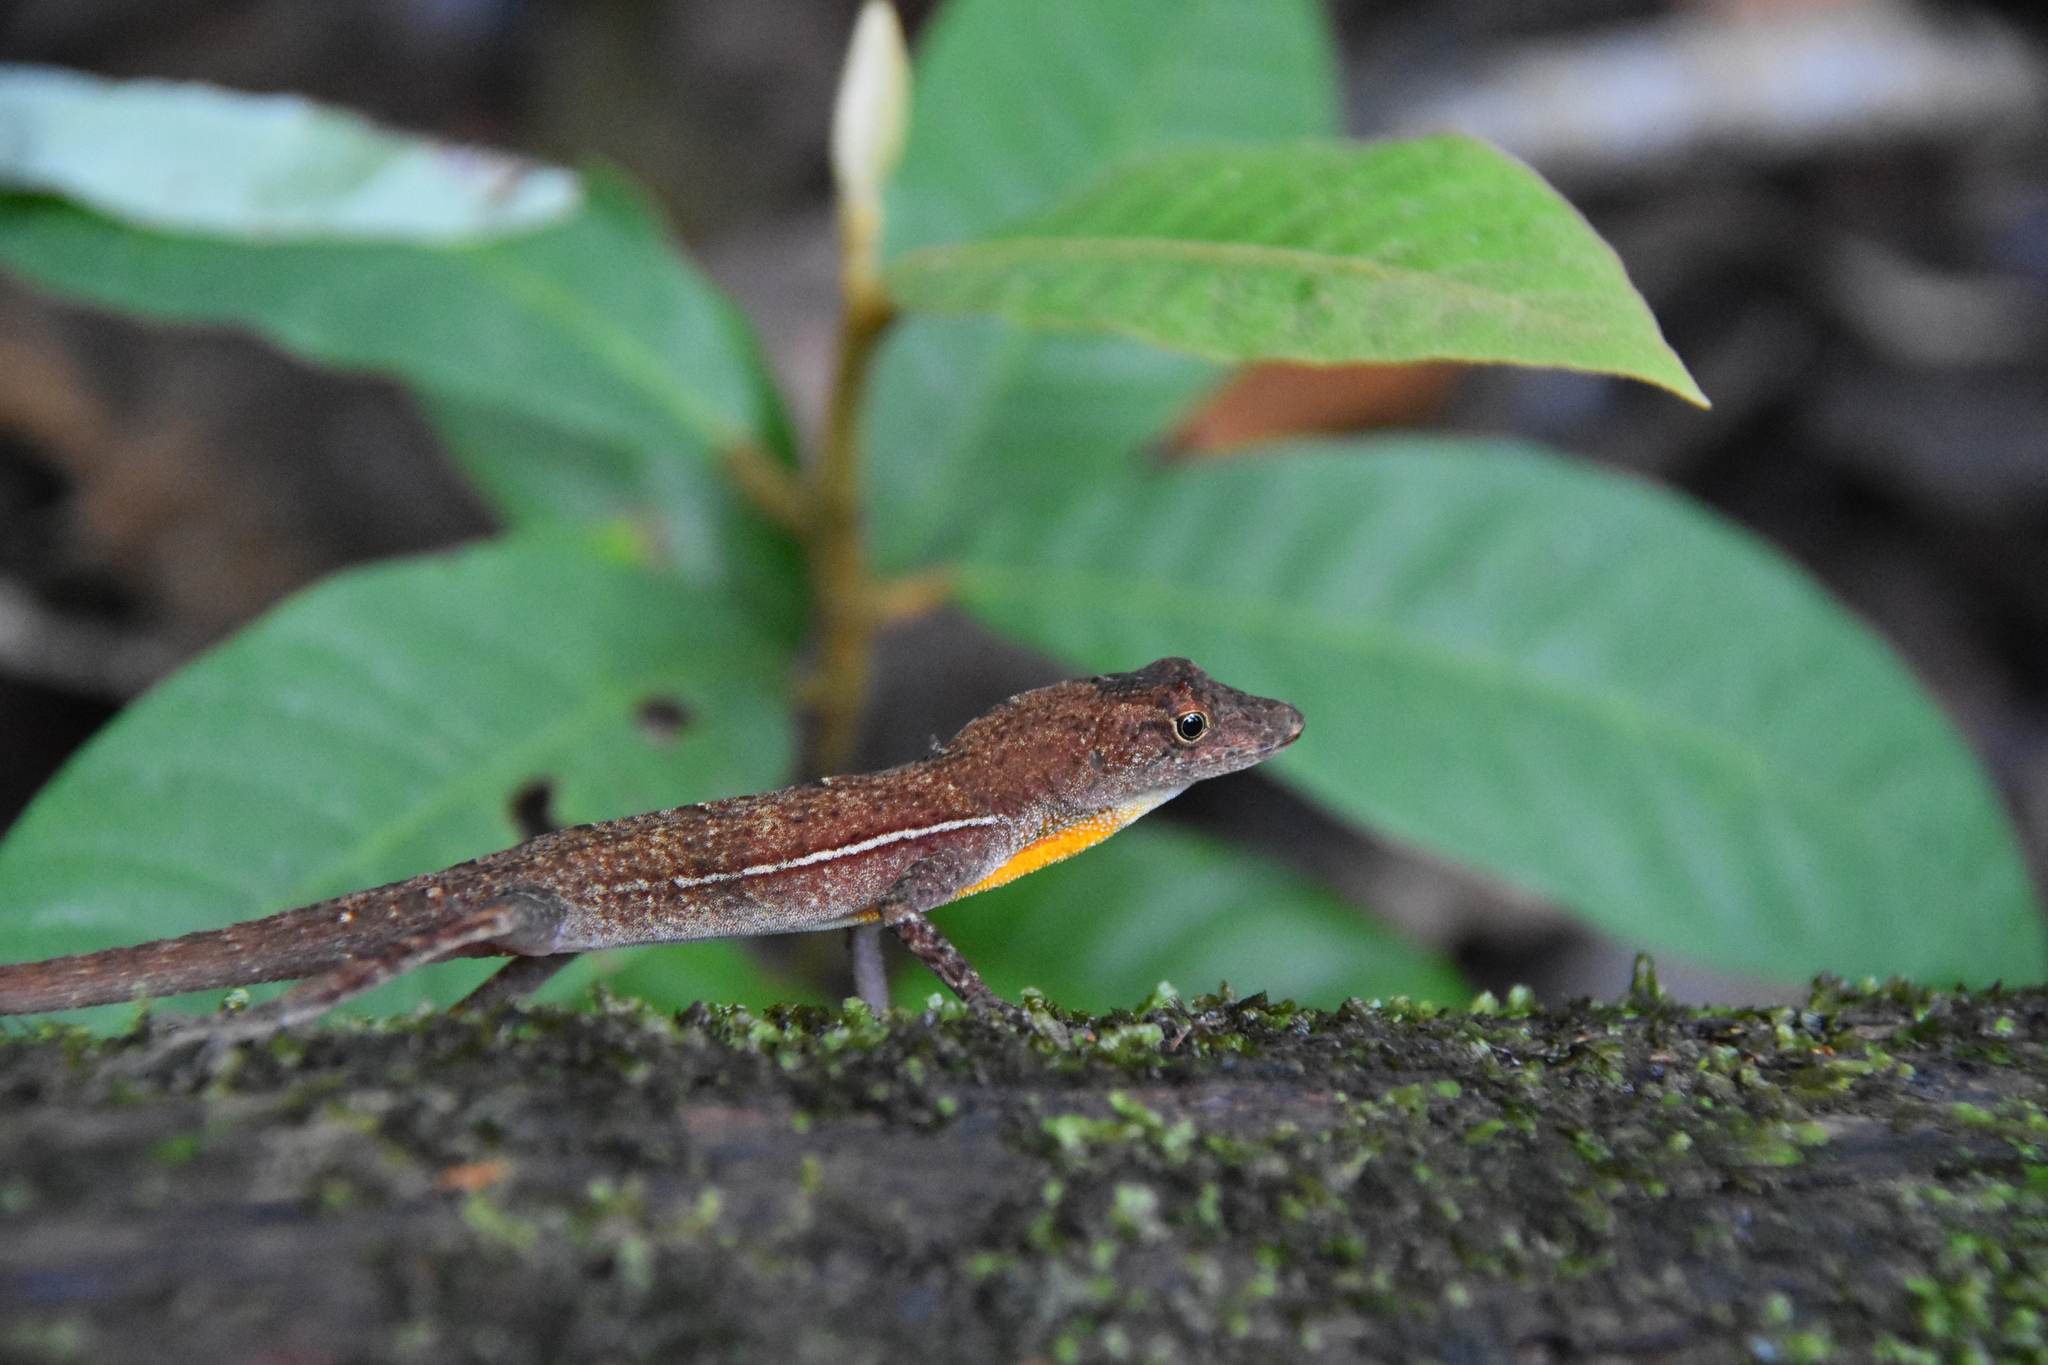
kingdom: Animalia
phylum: Chordata
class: Squamata
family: Dactyloidae
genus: Anolis
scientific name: Anolis osa
